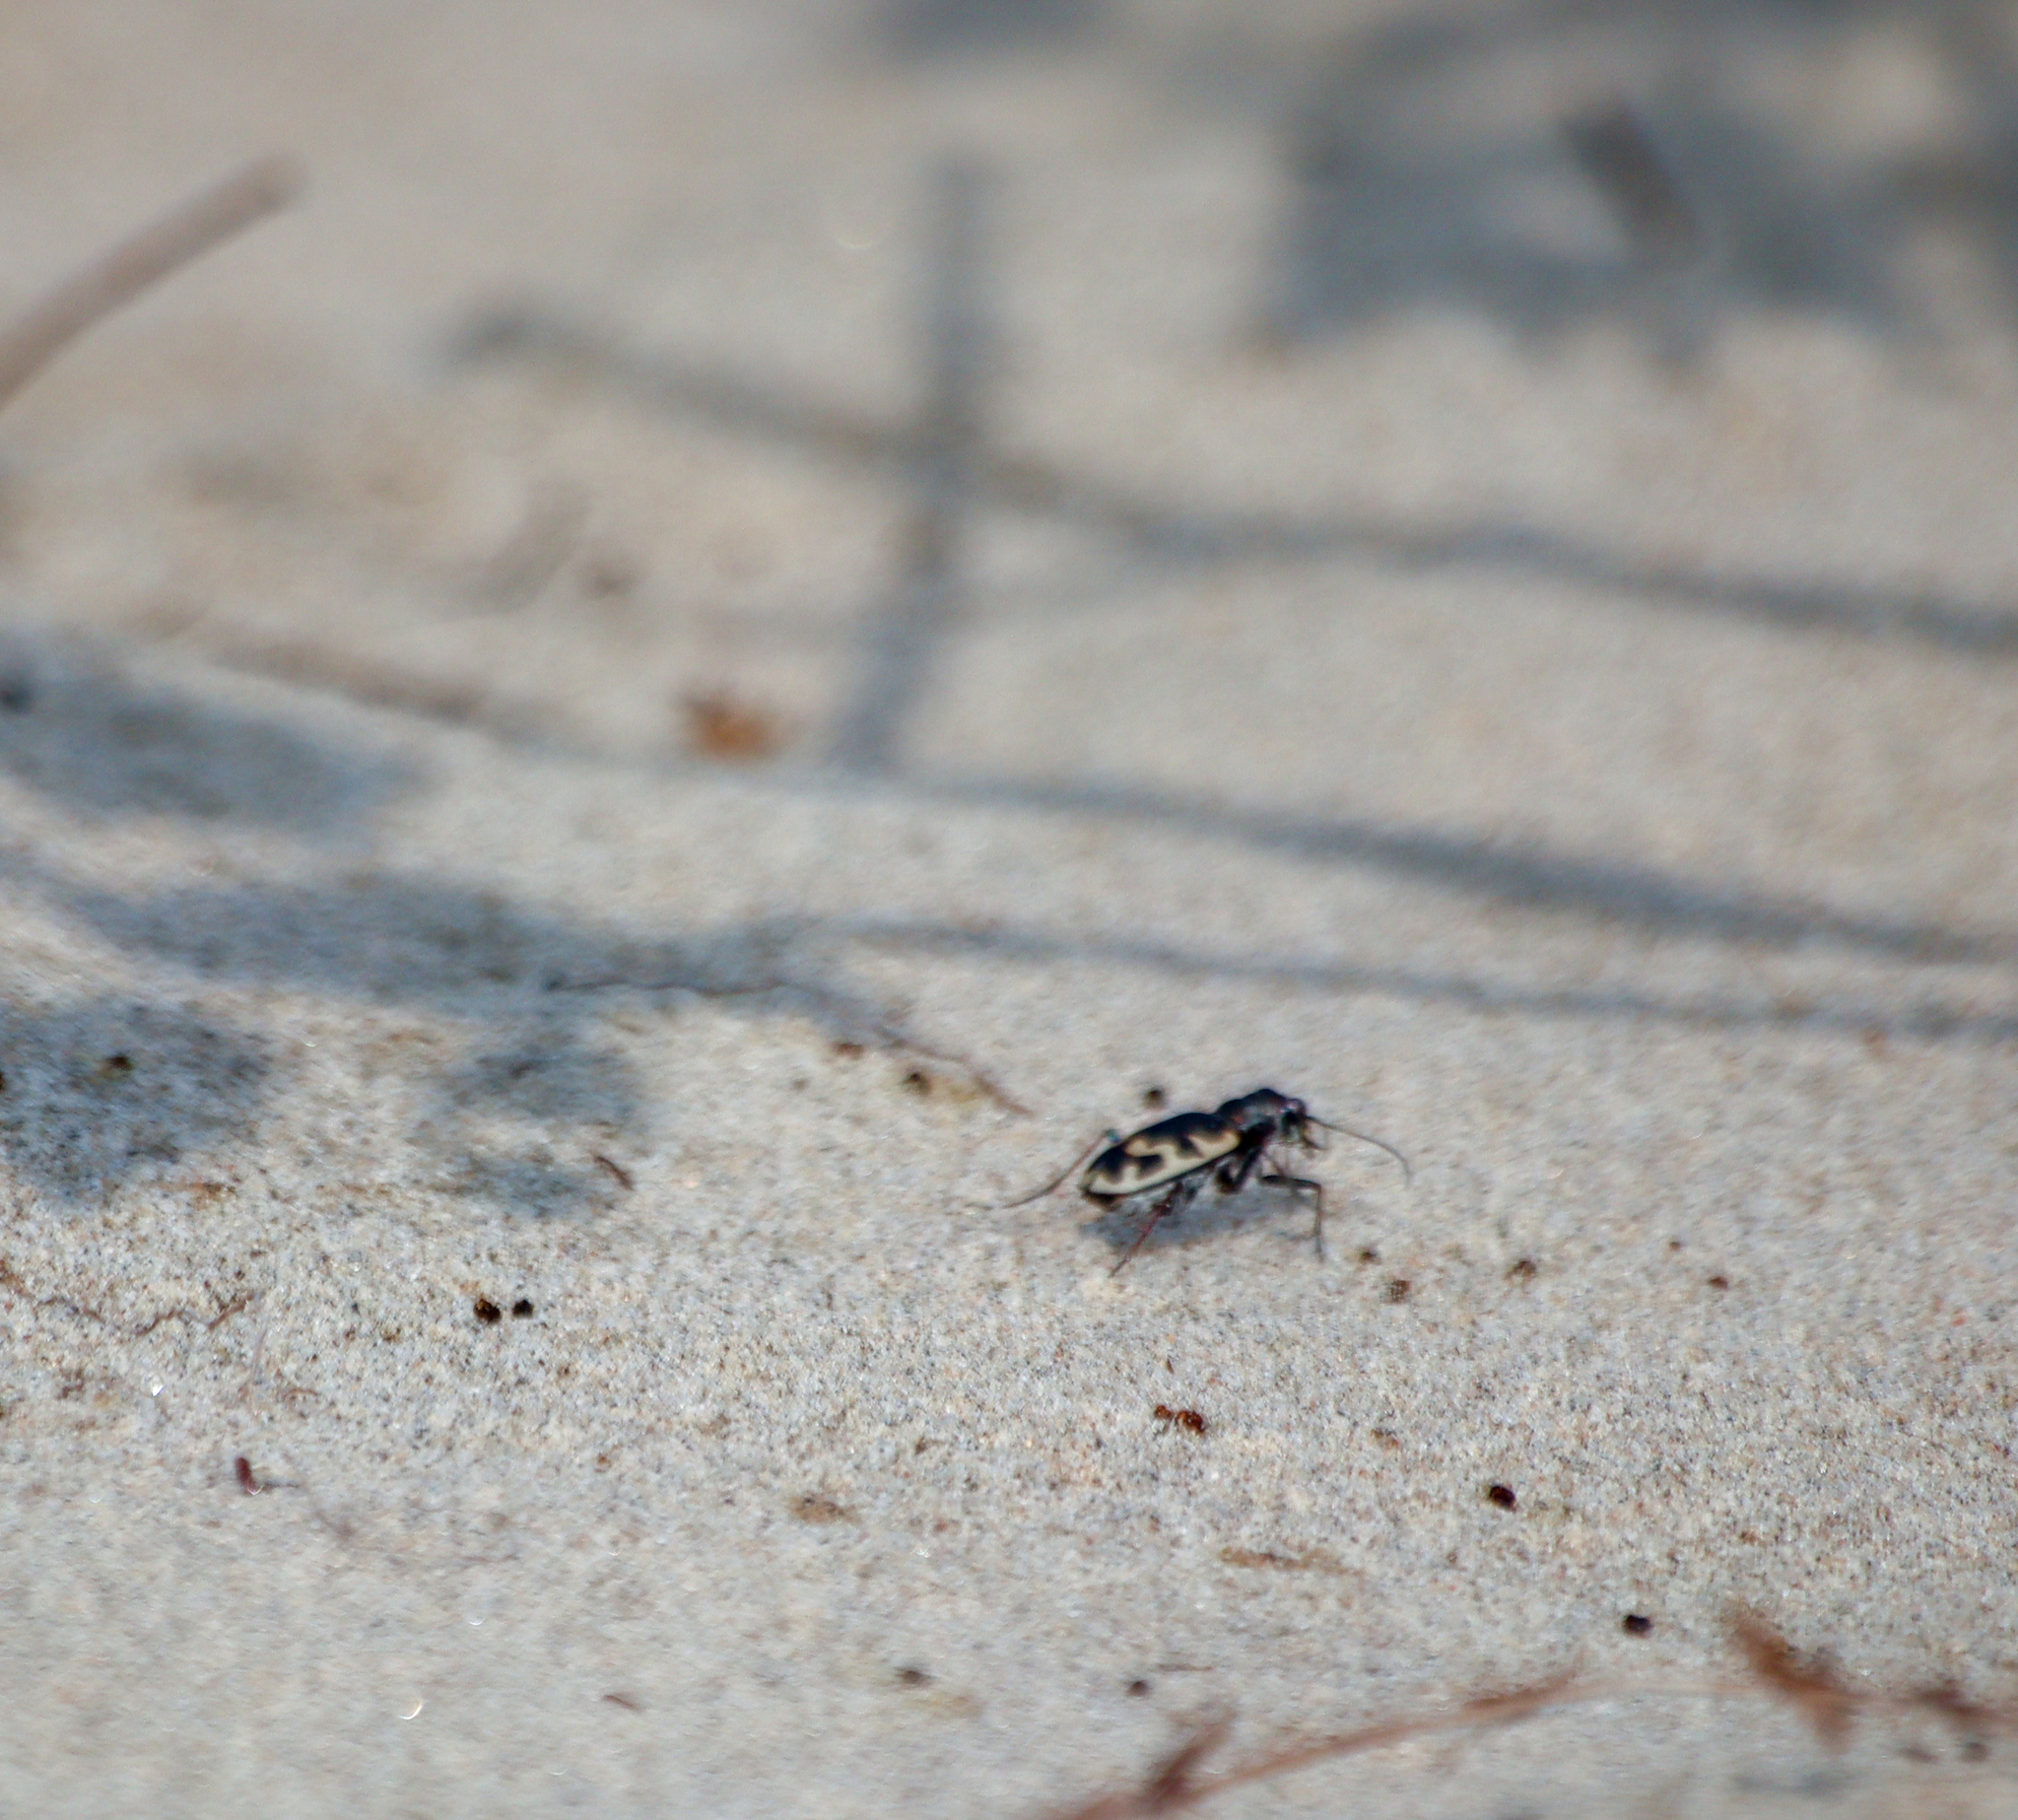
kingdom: Animalia
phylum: Arthropoda
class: Insecta
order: Coleoptera
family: Carabidae
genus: Cicindela
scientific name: Cicindela formosa
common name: Big sand tiger beetle
